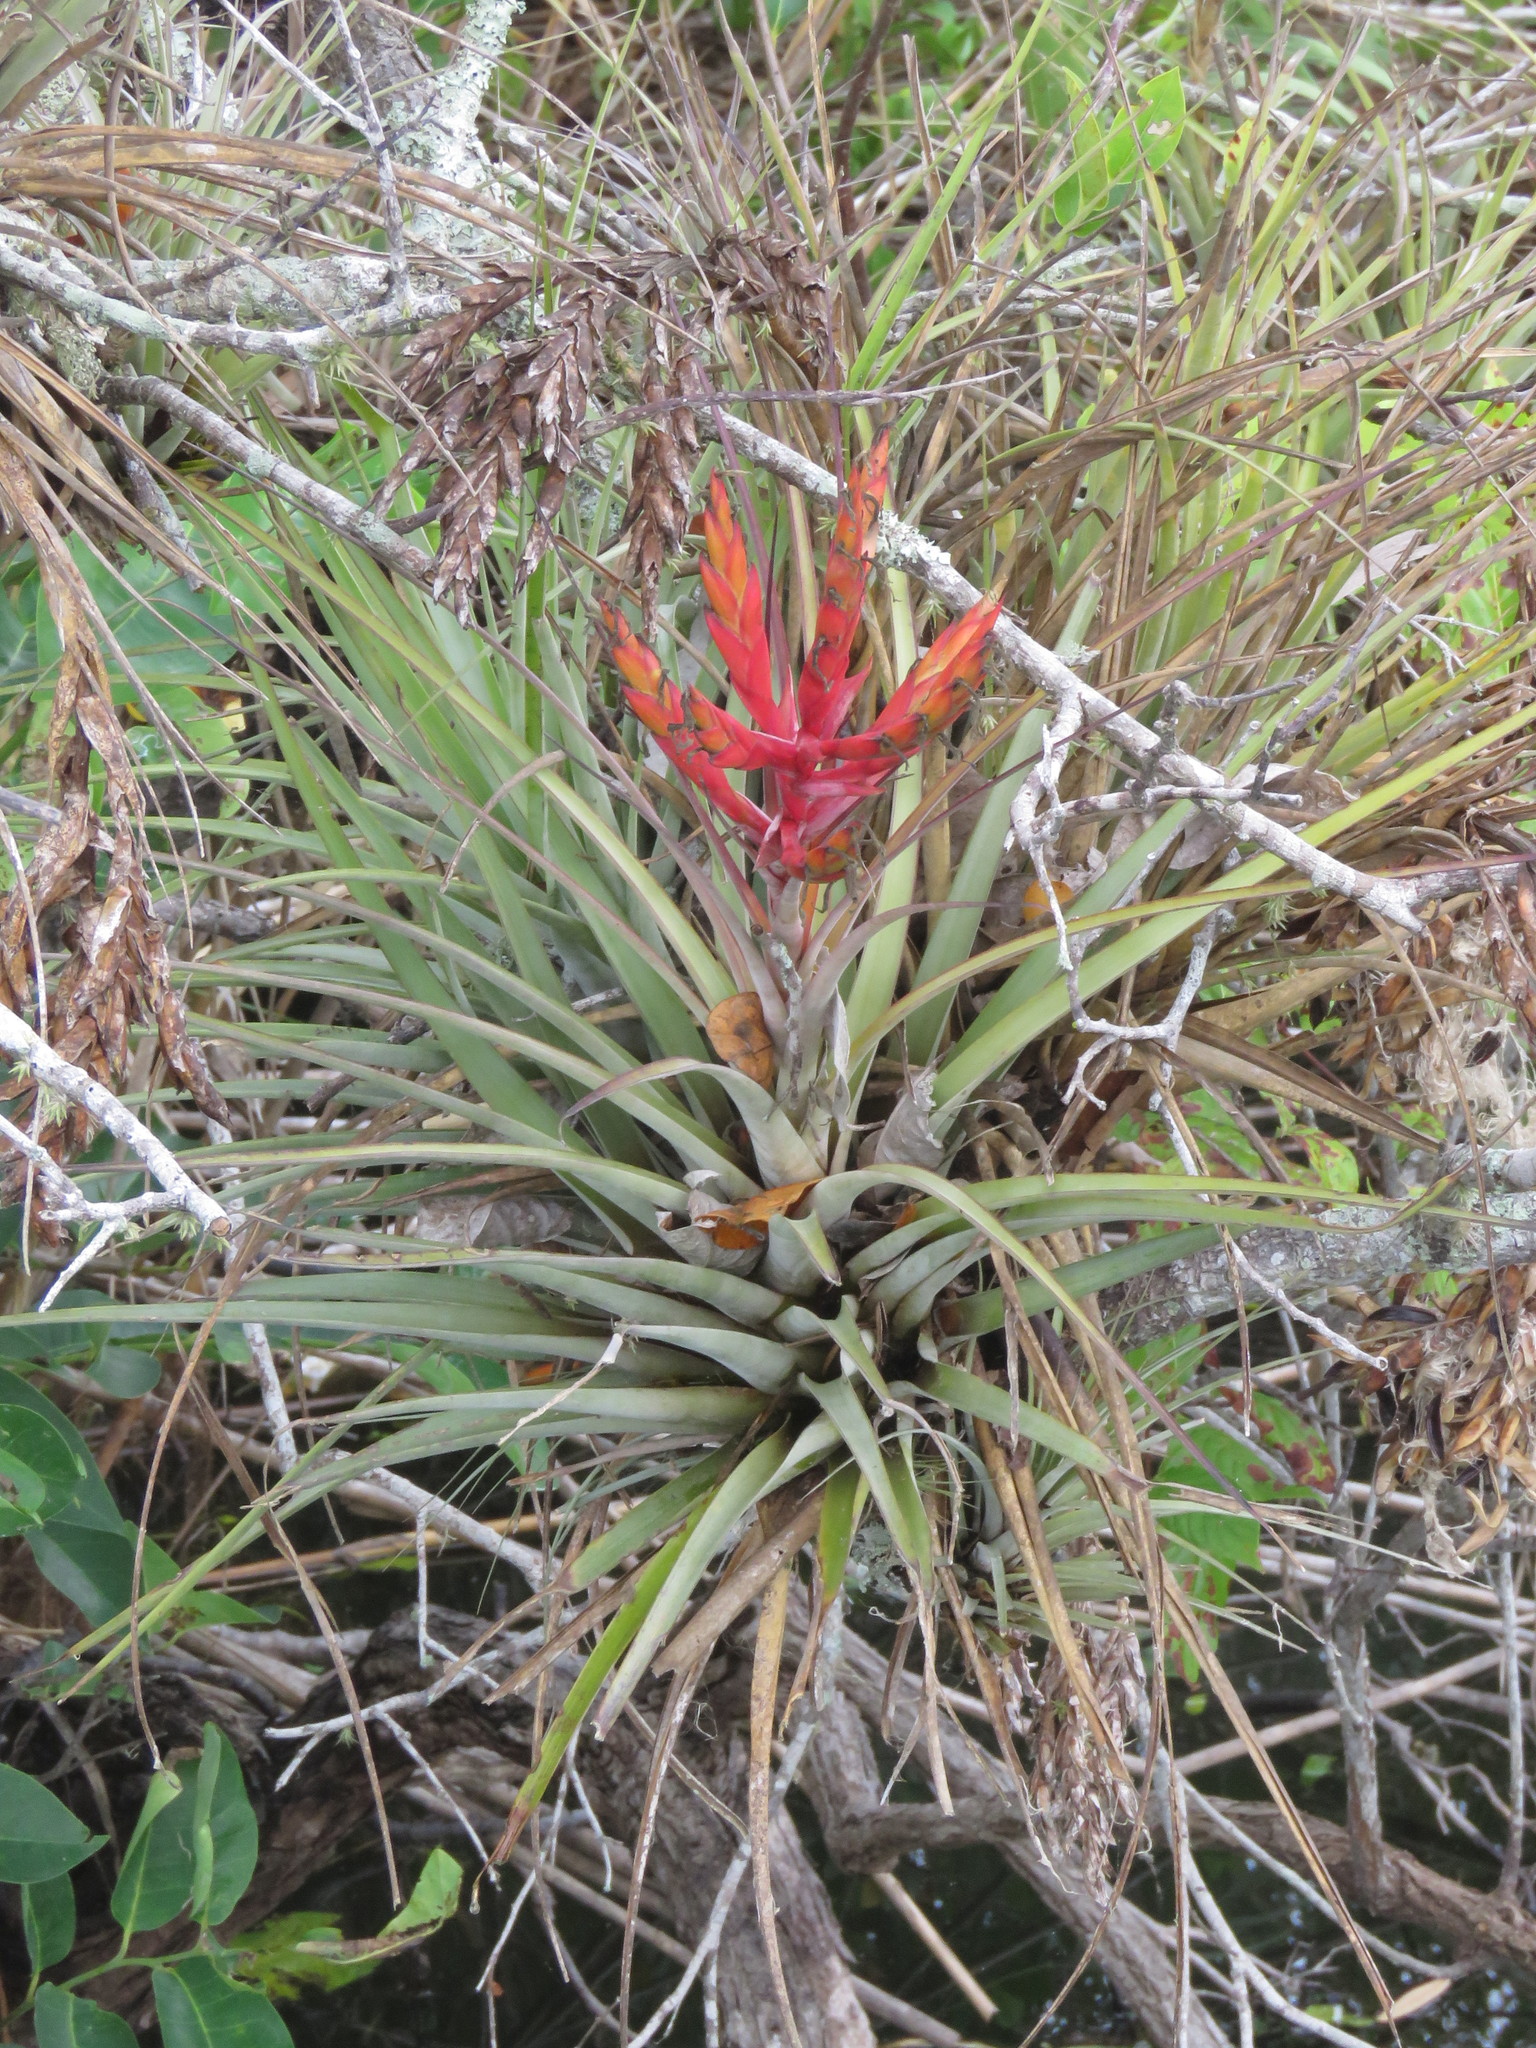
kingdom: Plantae
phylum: Tracheophyta
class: Liliopsida
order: Poales
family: Bromeliaceae
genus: Tillandsia
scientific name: Tillandsia fasciculata
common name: Giant airplant
